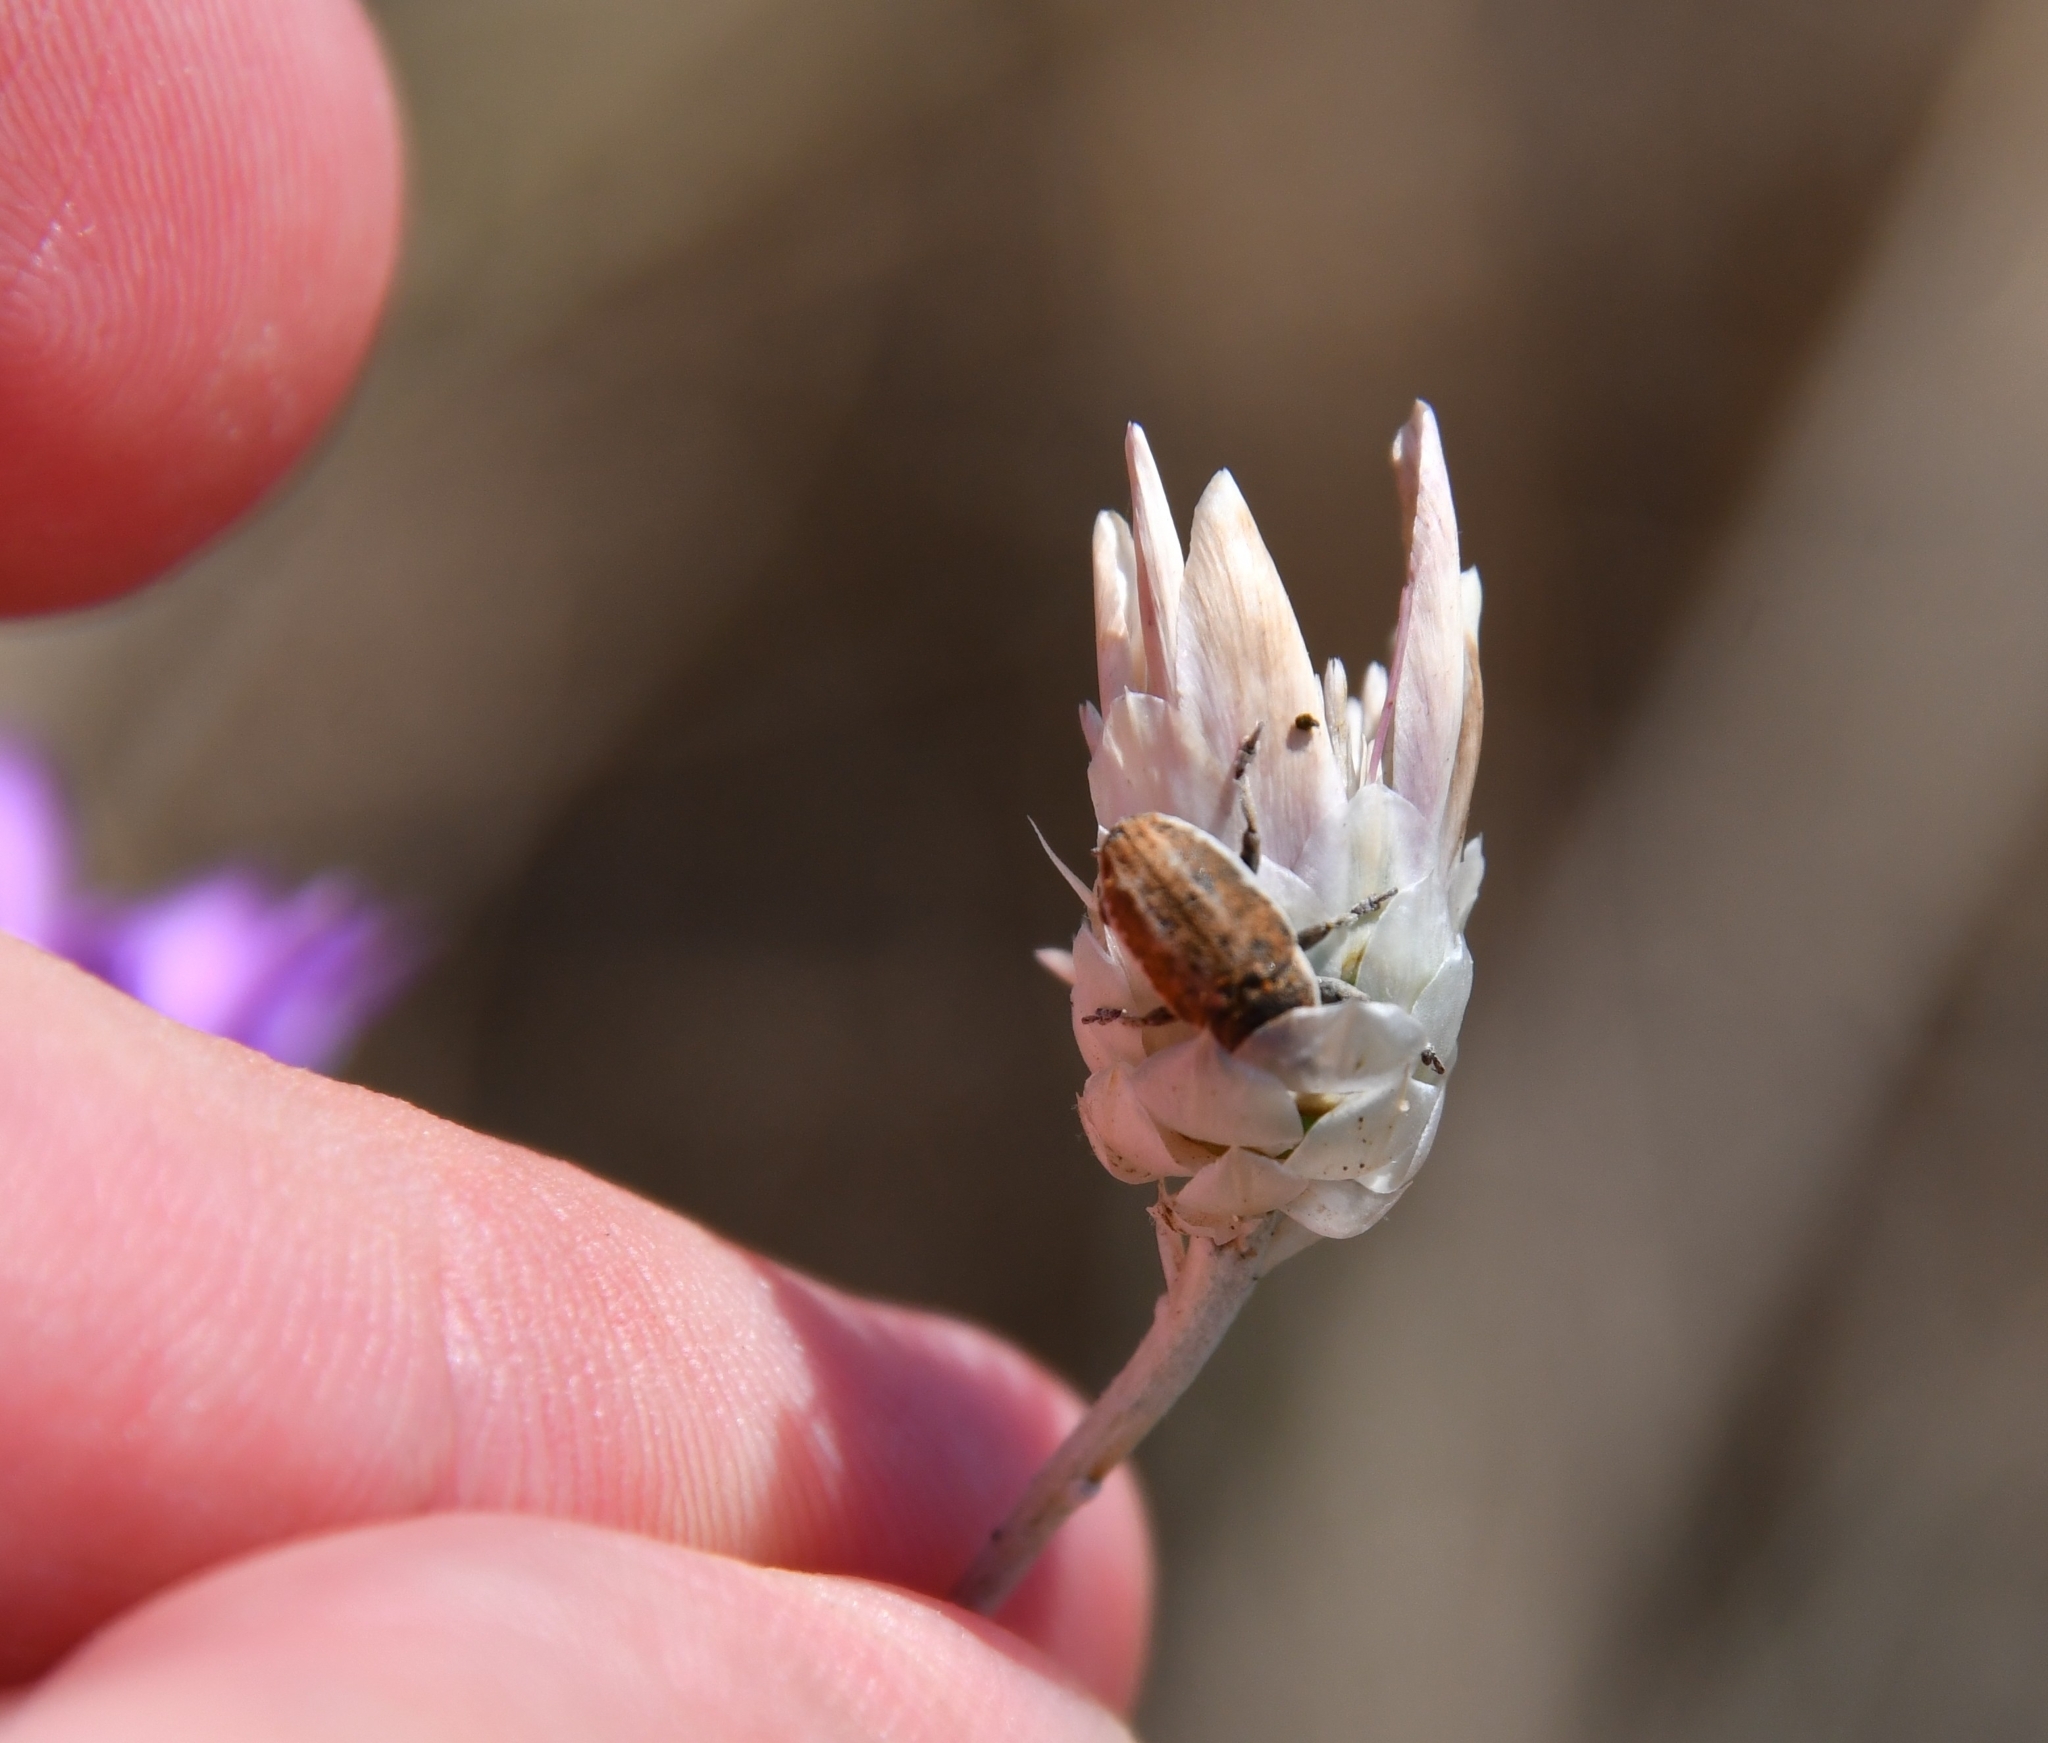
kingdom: Animalia
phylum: Arthropoda
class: Insecta
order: Coleoptera
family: Curculionidae
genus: Larinus
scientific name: Larinus sibiricus
